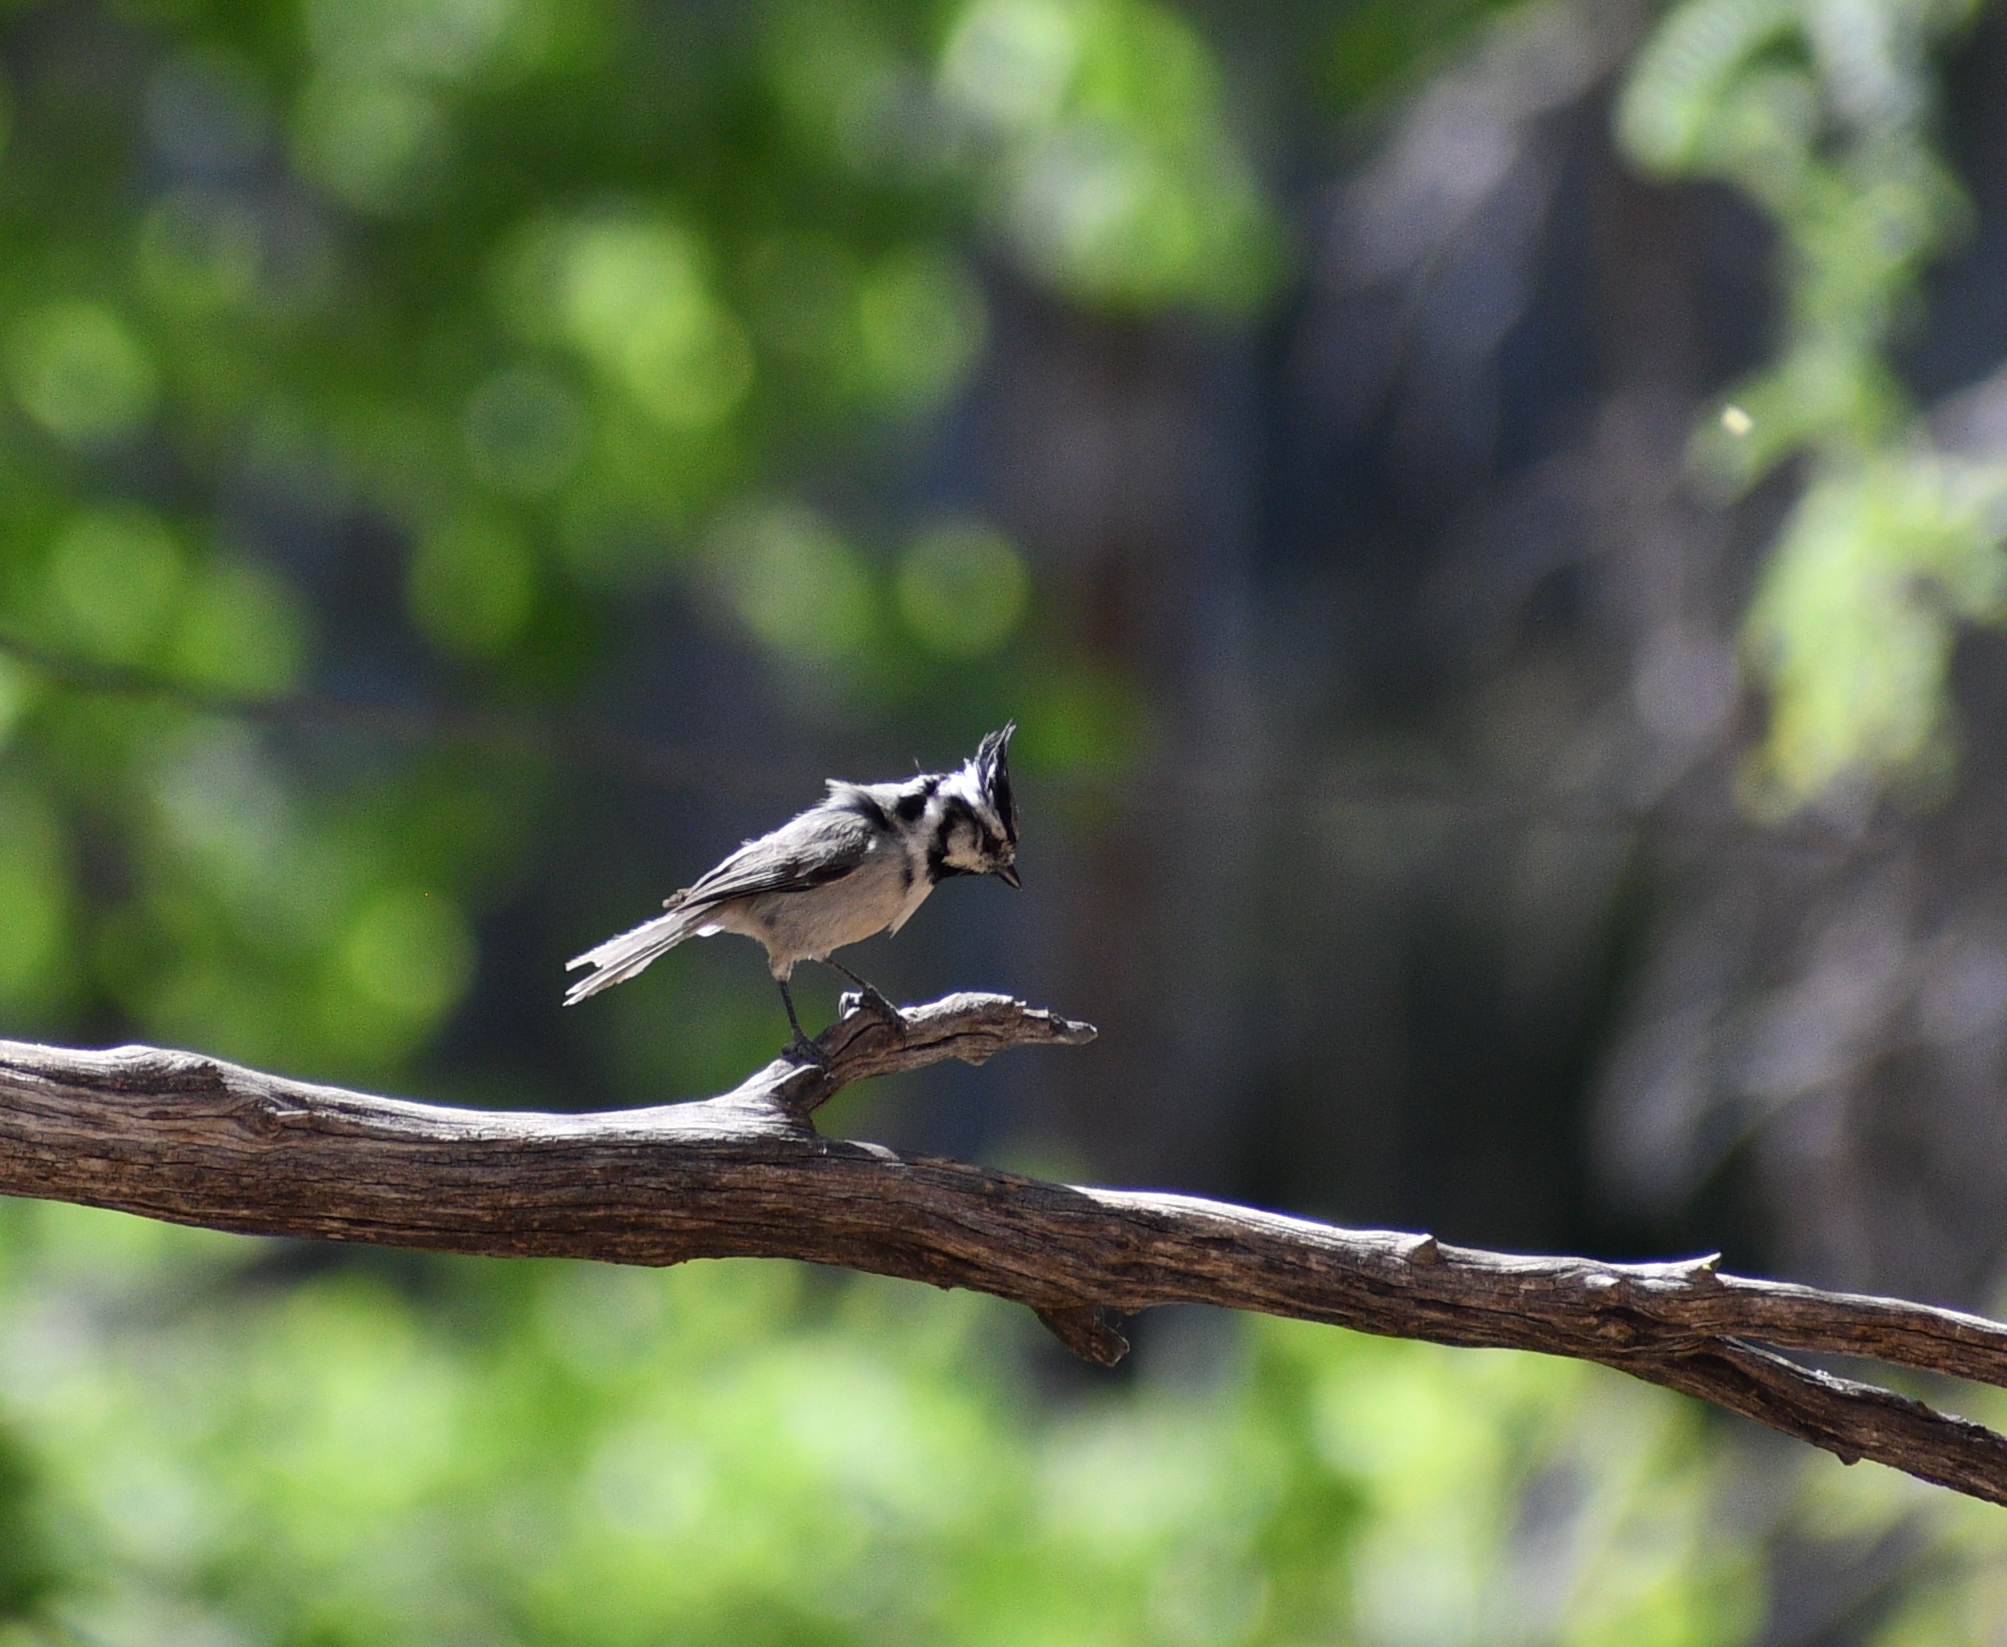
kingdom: Animalia
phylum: Chordata
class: Aves
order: Passeriformes
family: Paridae
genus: Baeolophus
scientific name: Baeolophus wollweberi
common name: Bridled titmouse
